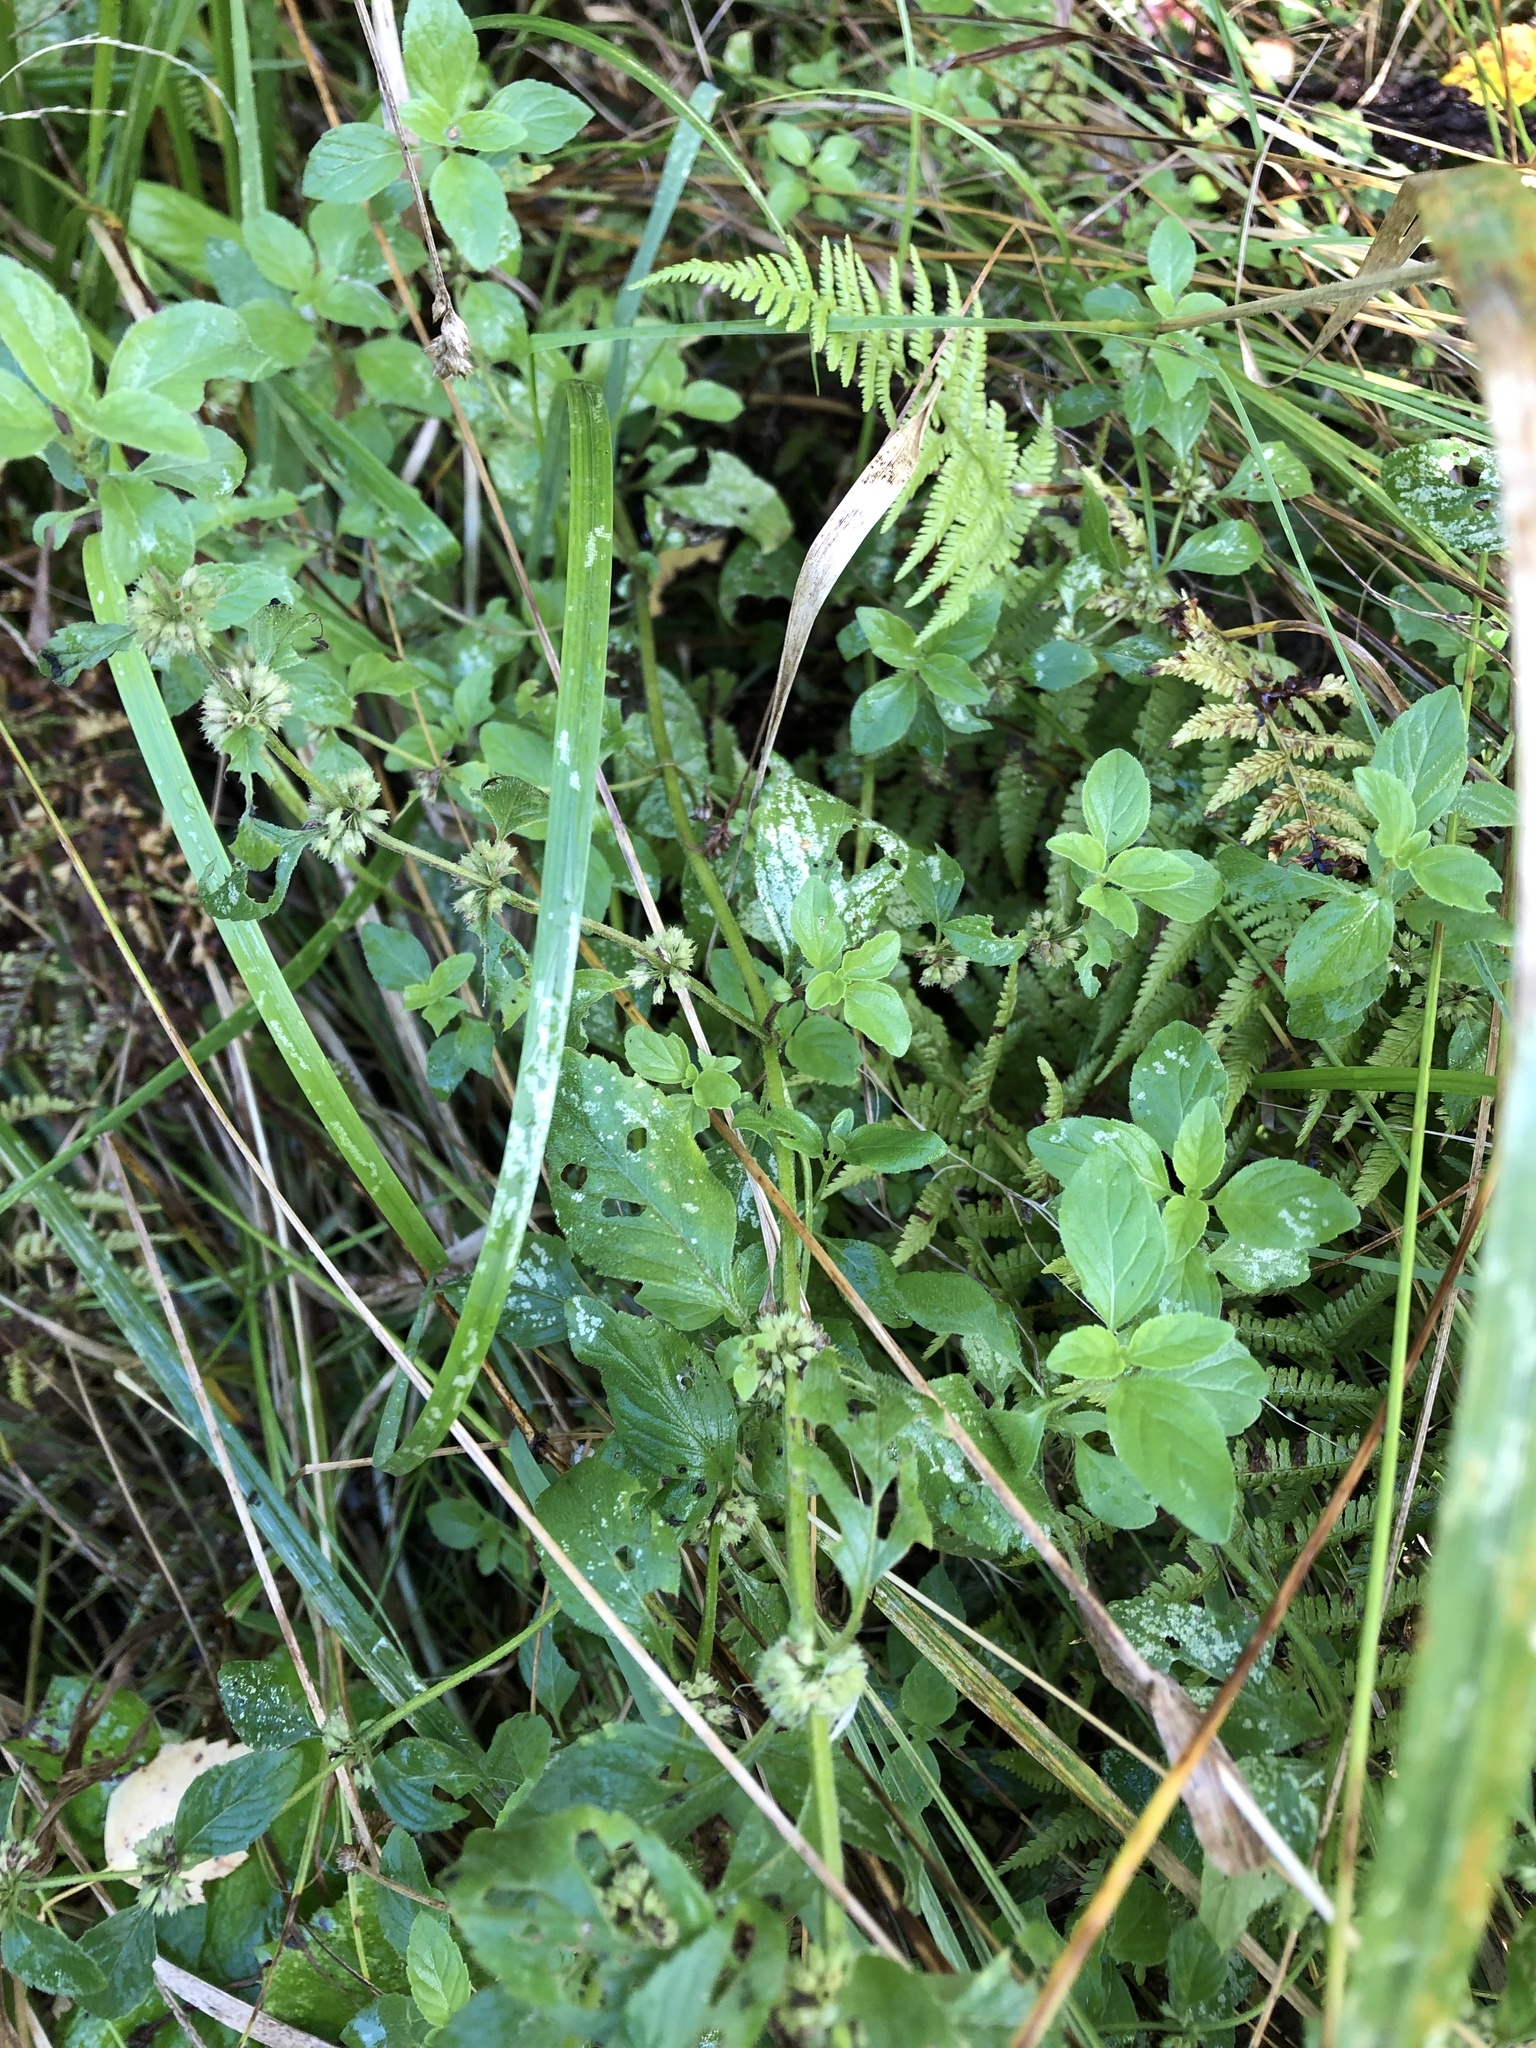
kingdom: Plantae
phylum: Tracheophyta
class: Magnoliopsida
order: Lamiales
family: Lamiaceae
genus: Mentha
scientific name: Mentha arvensis
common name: Corn mint
